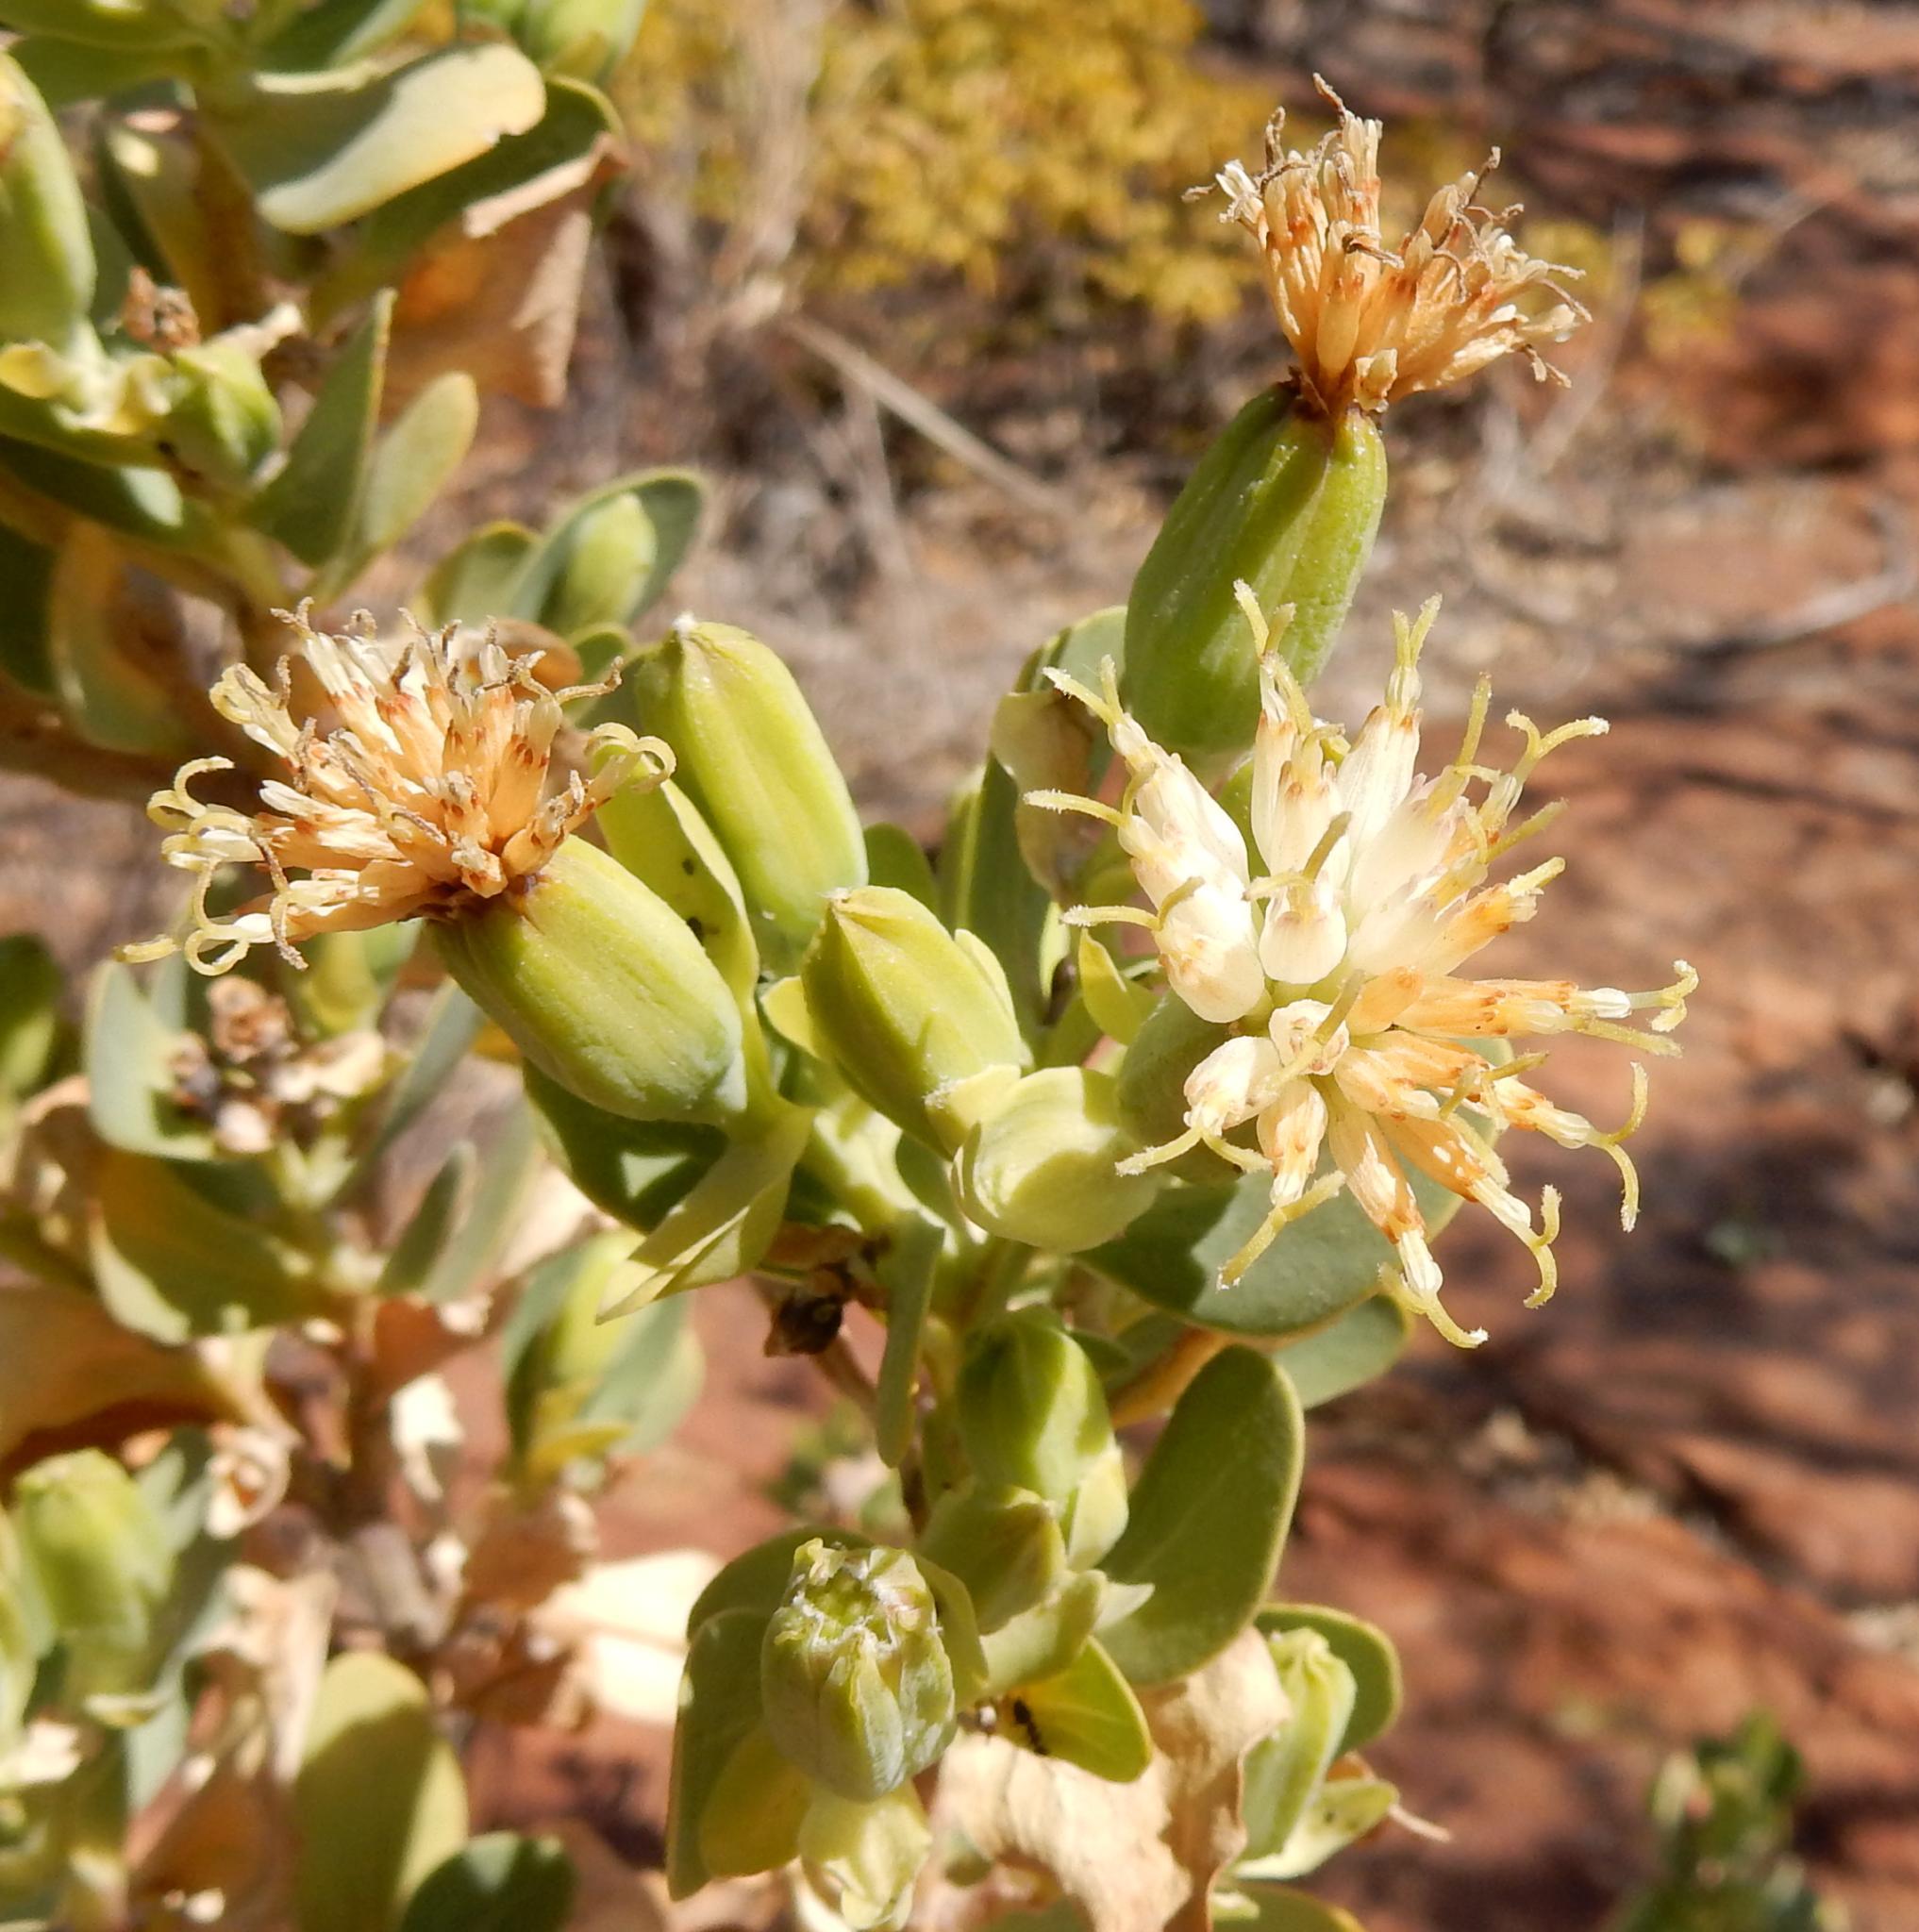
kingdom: Plantae
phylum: Tracheophyta
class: Magnoliopsida
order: Asterales
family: Asteraceae
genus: Lopholaena
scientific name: Lopholaena coriifolia
